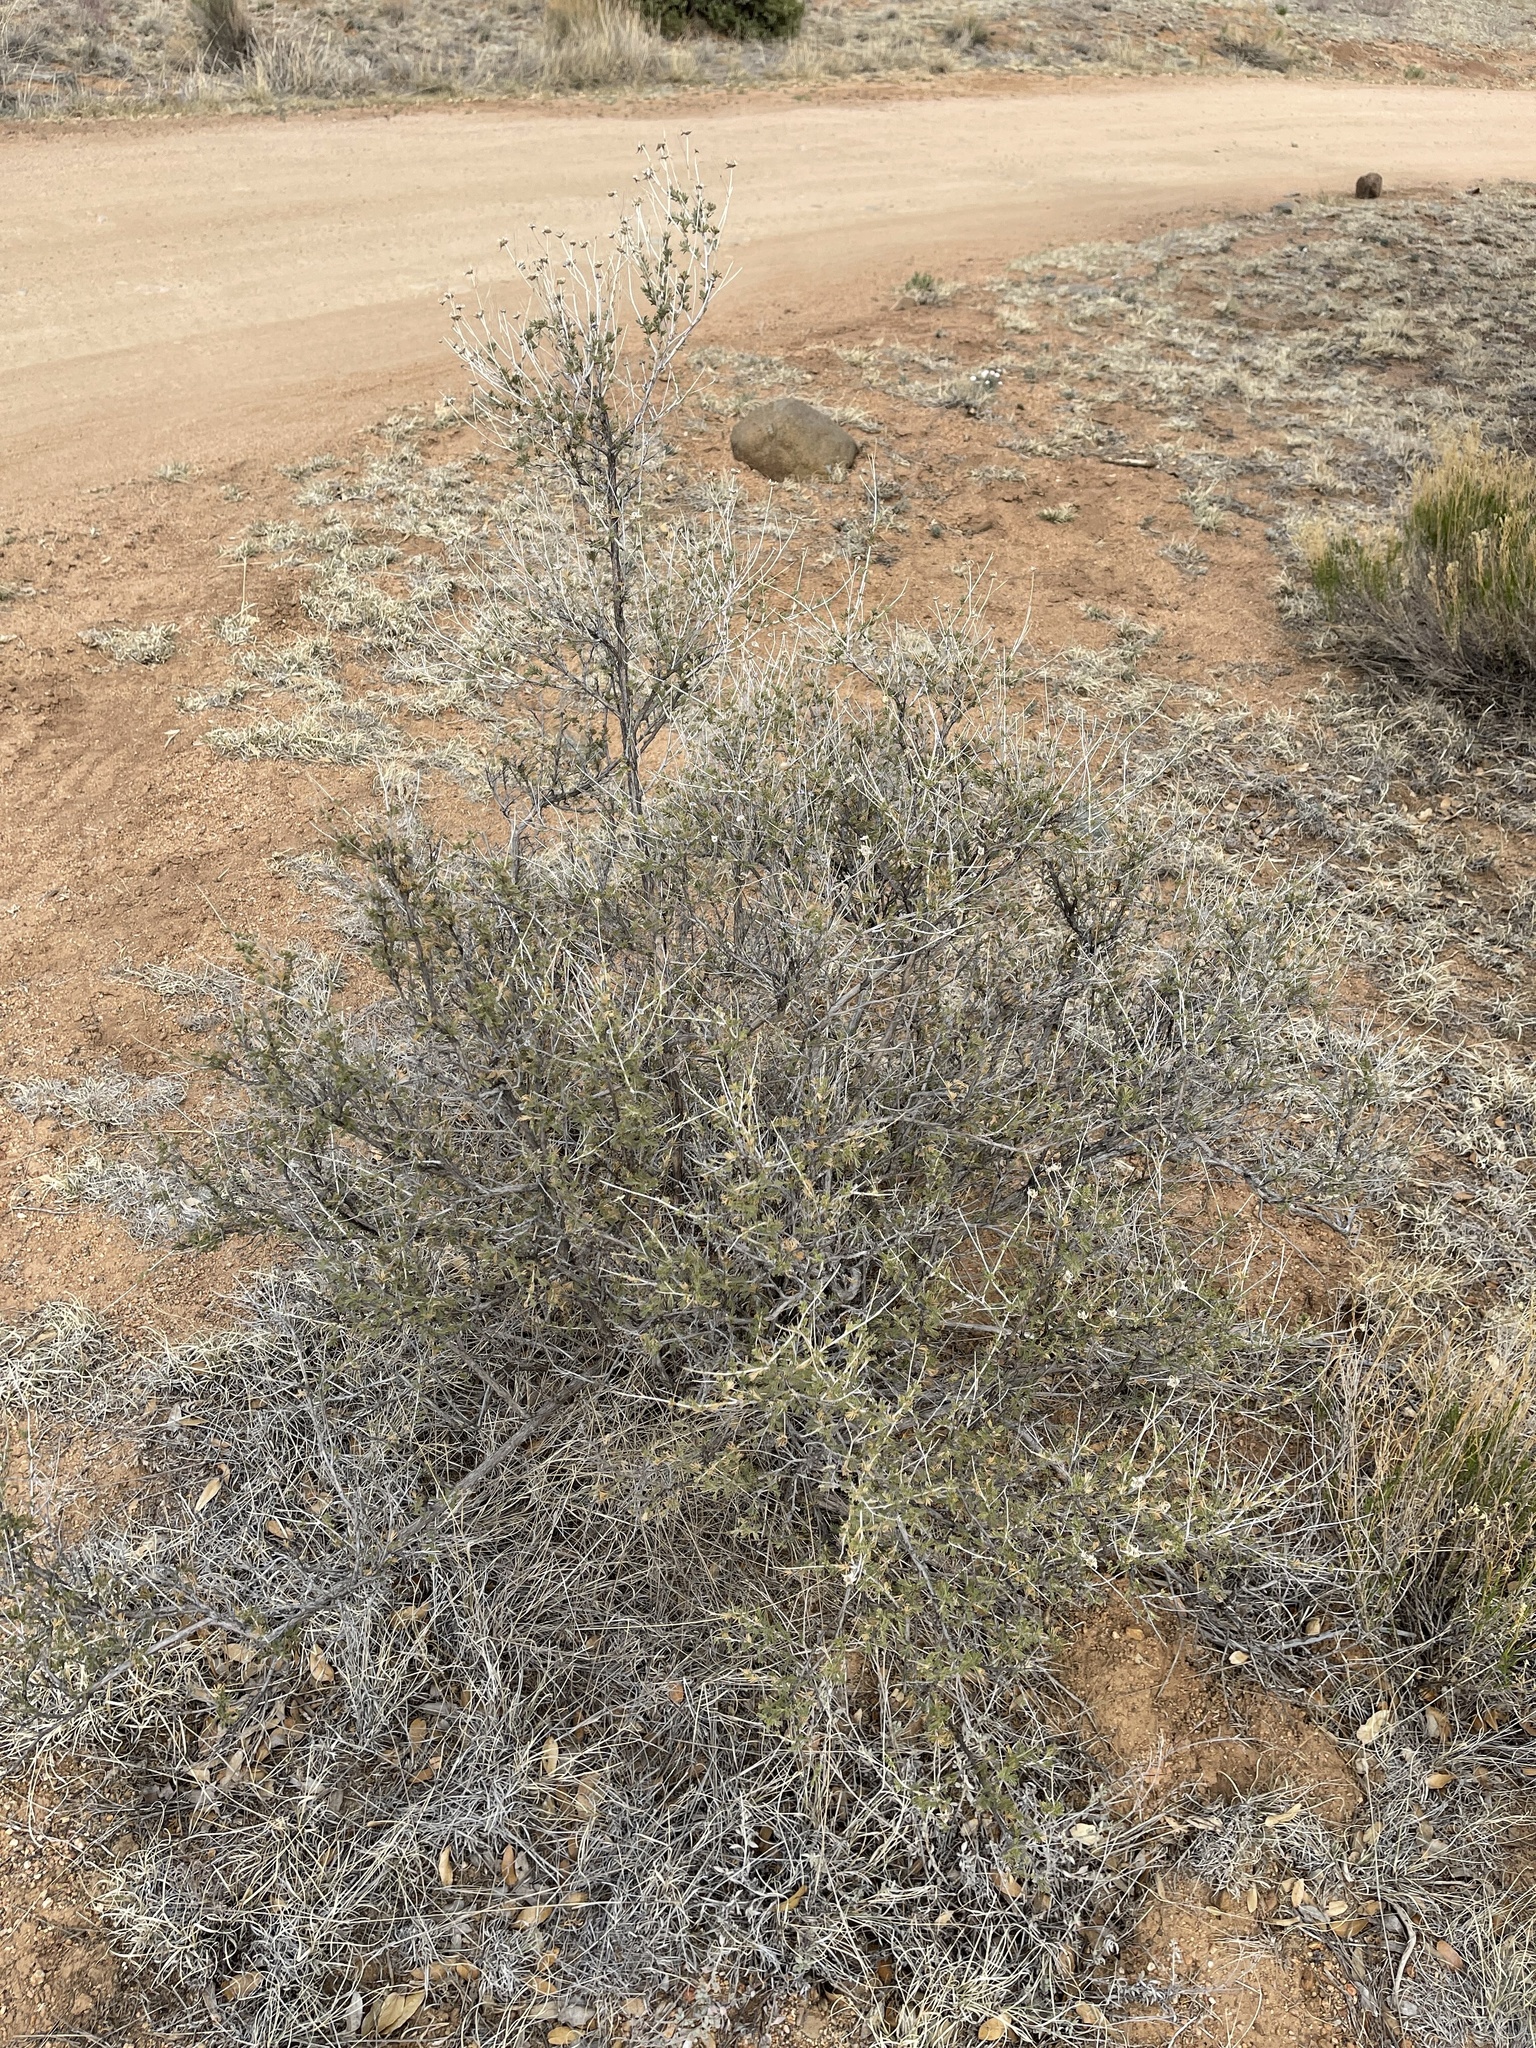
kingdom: Plantae
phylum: Tracheophyta
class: Magnoliopsida
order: Rosales
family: Rosaceae
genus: Fallugia
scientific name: Fallugia paradoxa
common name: Apache-plume
